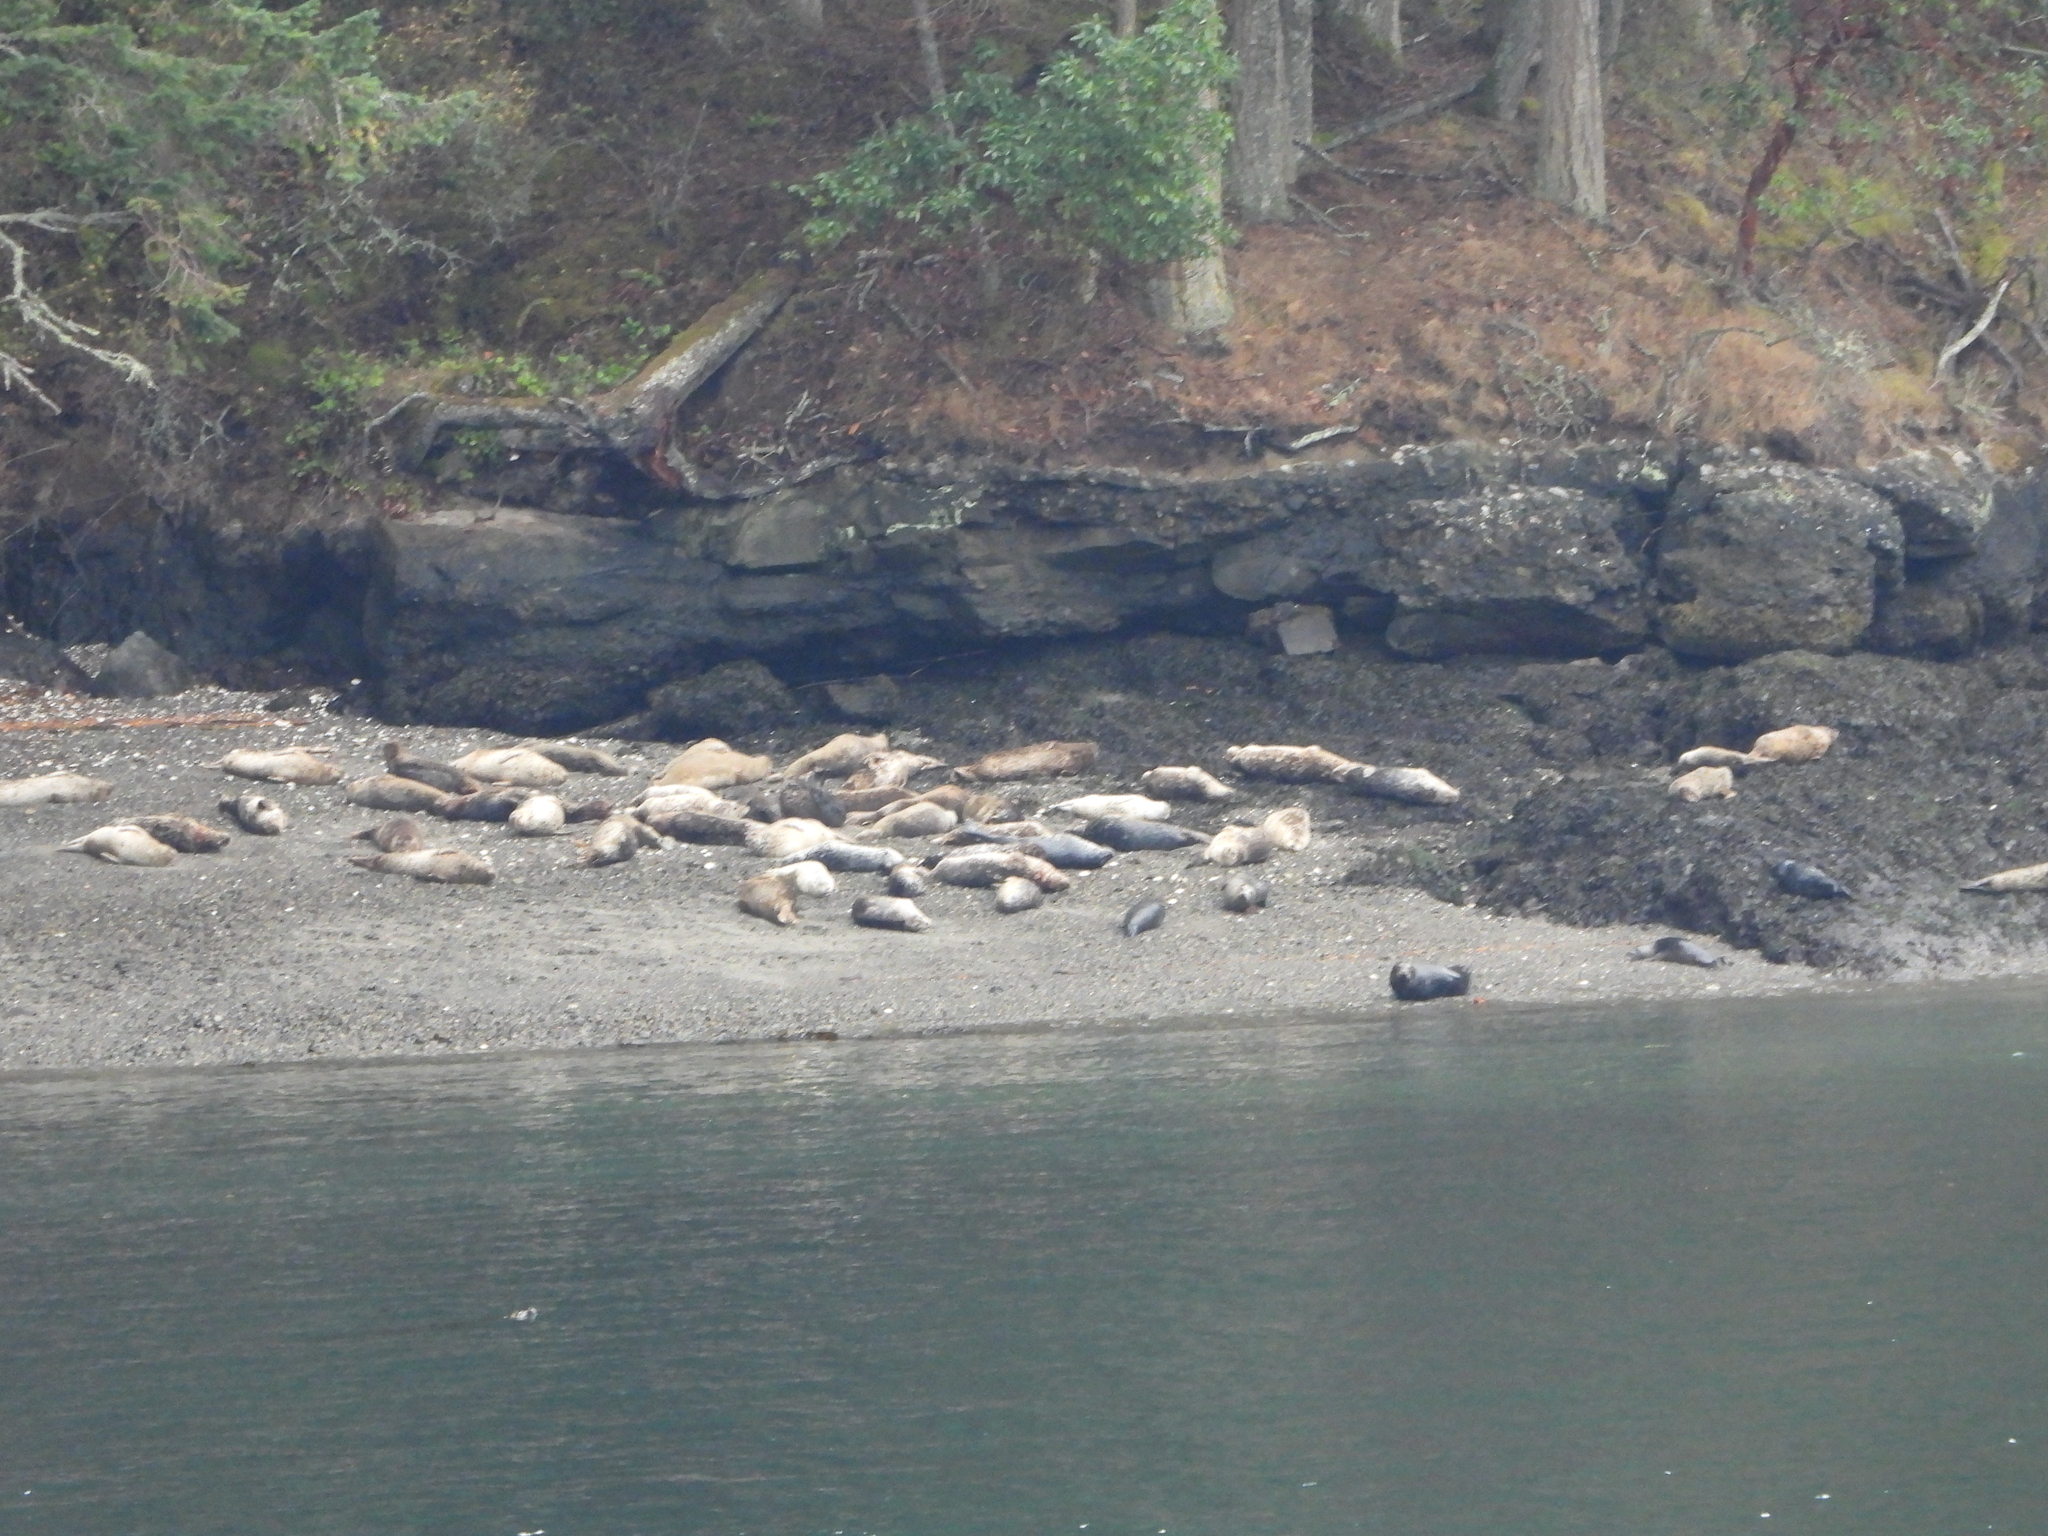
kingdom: Animalia
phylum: Chordata
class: Mammalia
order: Carnivora
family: Phocidae
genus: Phoca
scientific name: Phoca vitulina
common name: Harbor seal
